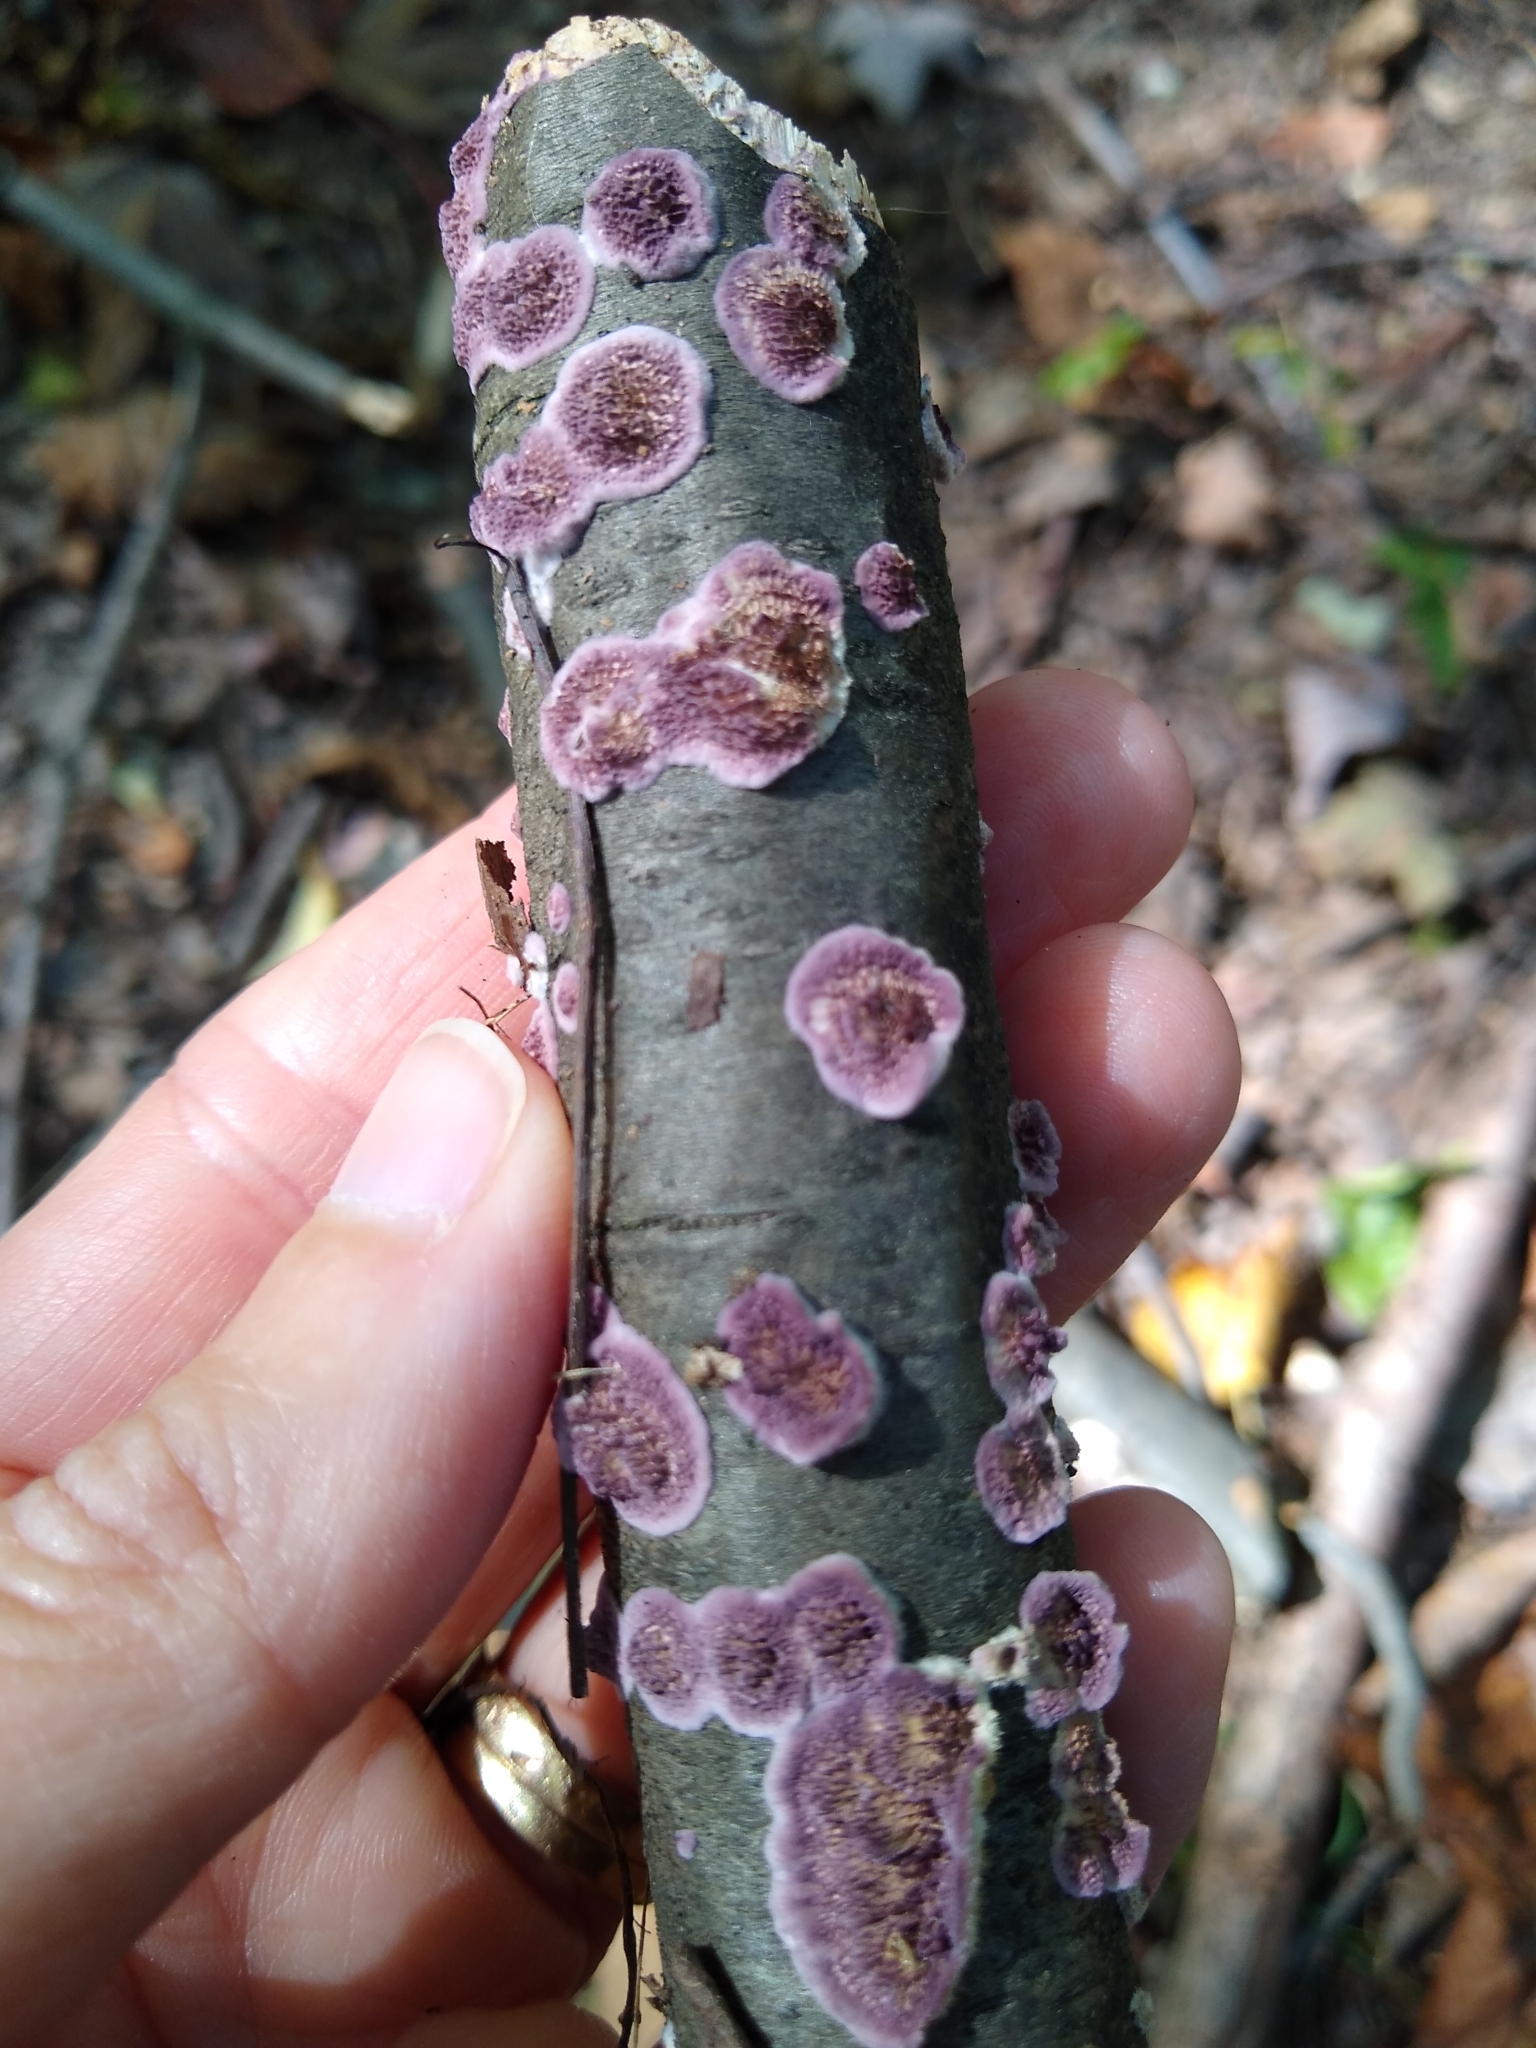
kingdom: Fungi
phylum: Basidiomycota
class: Agaricomycetes
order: Hymenochaetales
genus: Trichaptum
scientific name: Trichaptum biforme
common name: Violet-toothed polypore
